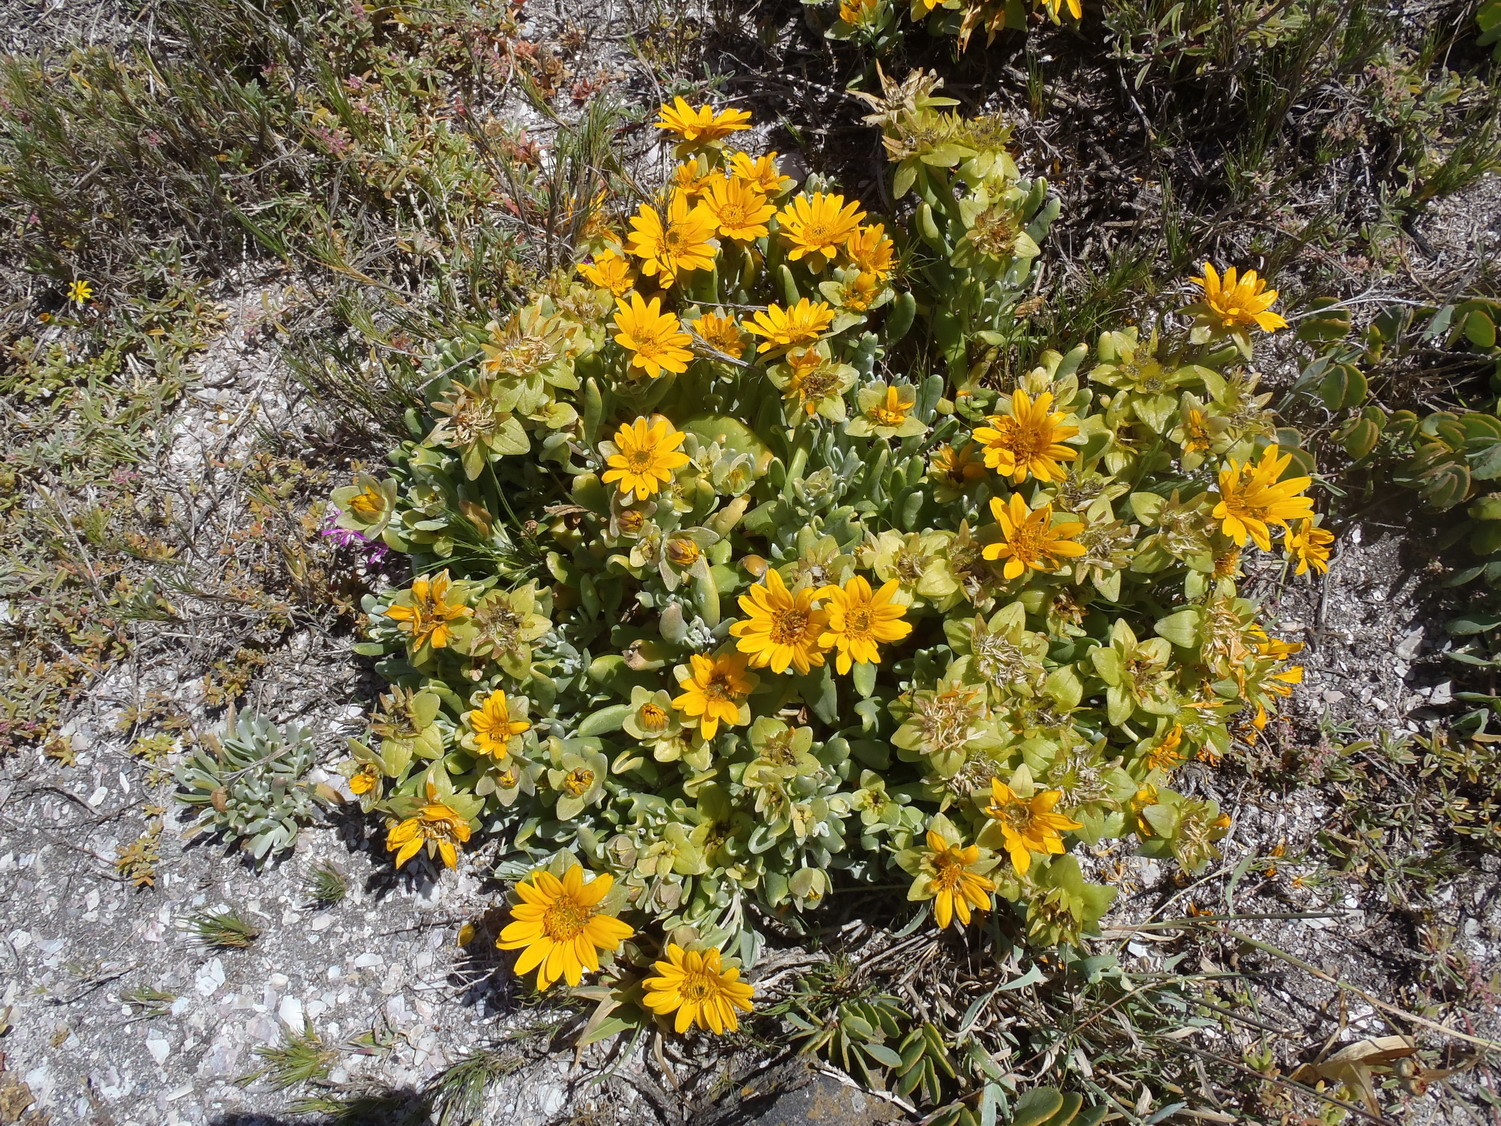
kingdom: Plantae
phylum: Tracheophyta
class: Magnoliopsida
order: Asterales
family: Asteraceae
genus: Didelta
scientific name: Didelta carnosa
